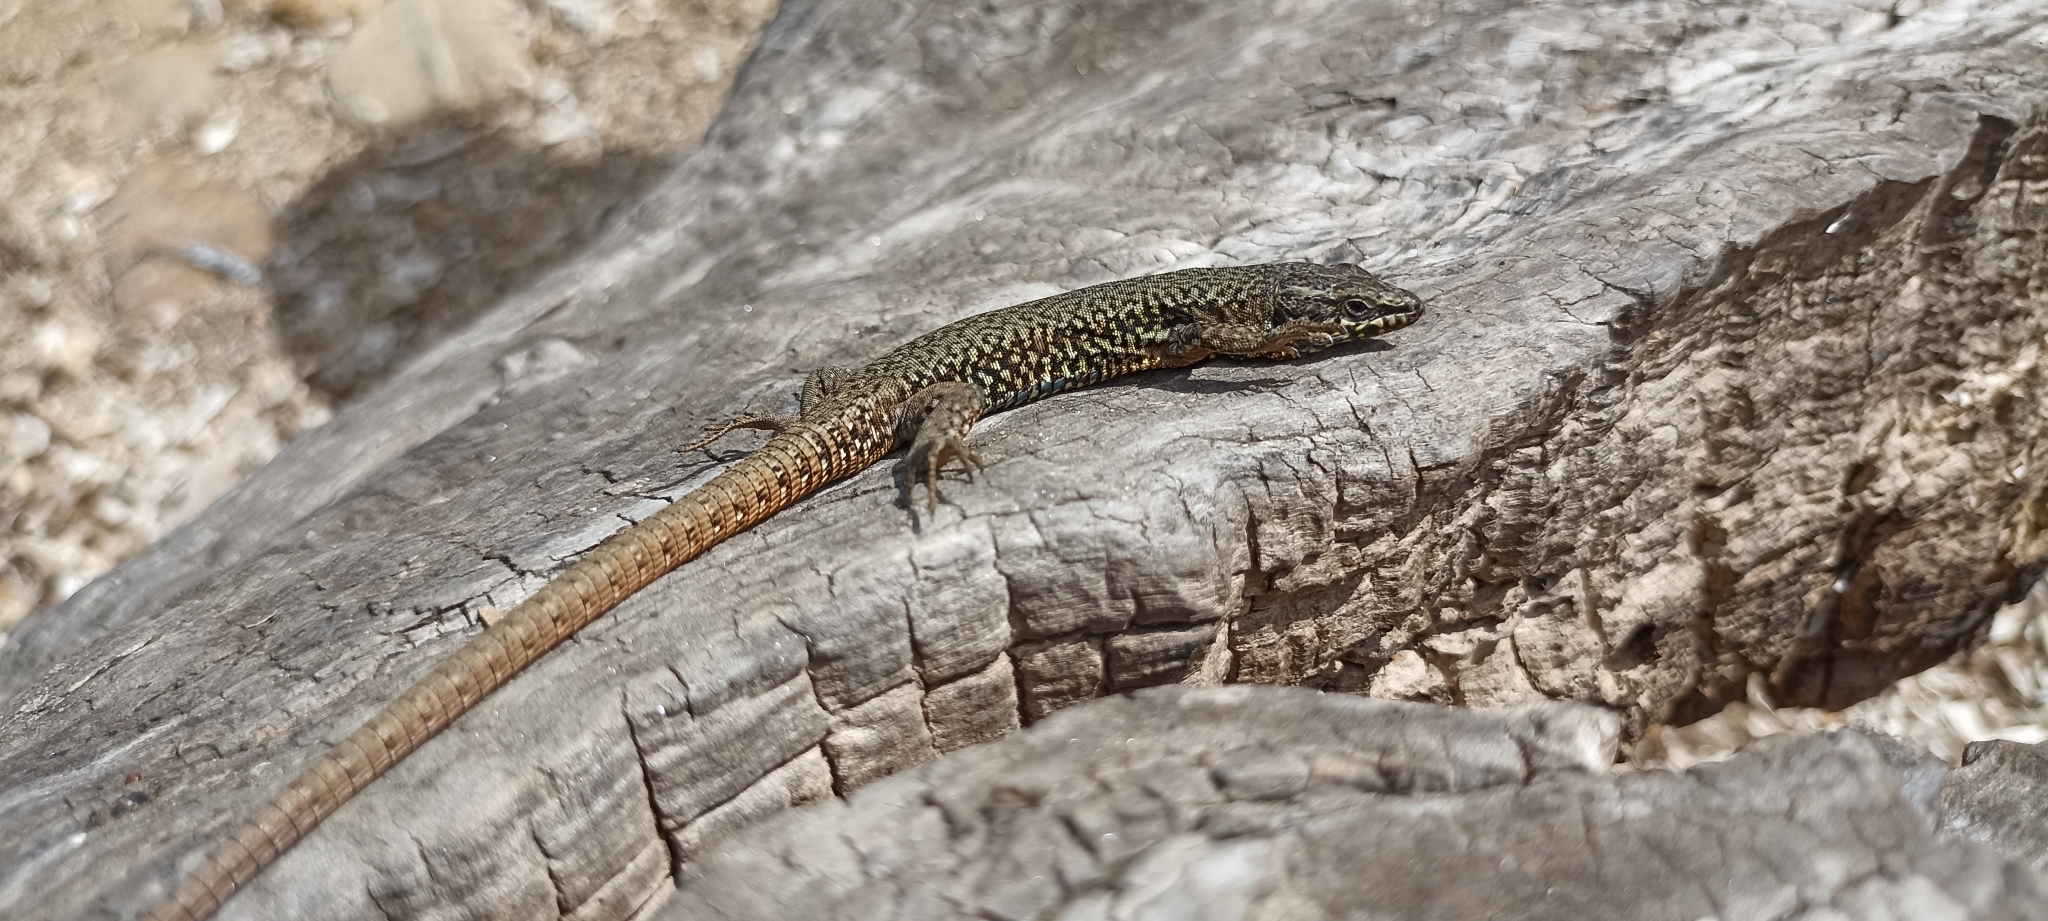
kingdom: Animalia
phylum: Chordata
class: Squamata
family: Lacertidae
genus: Podarcis
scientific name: Podarcis muralis
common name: Common wall lizard
